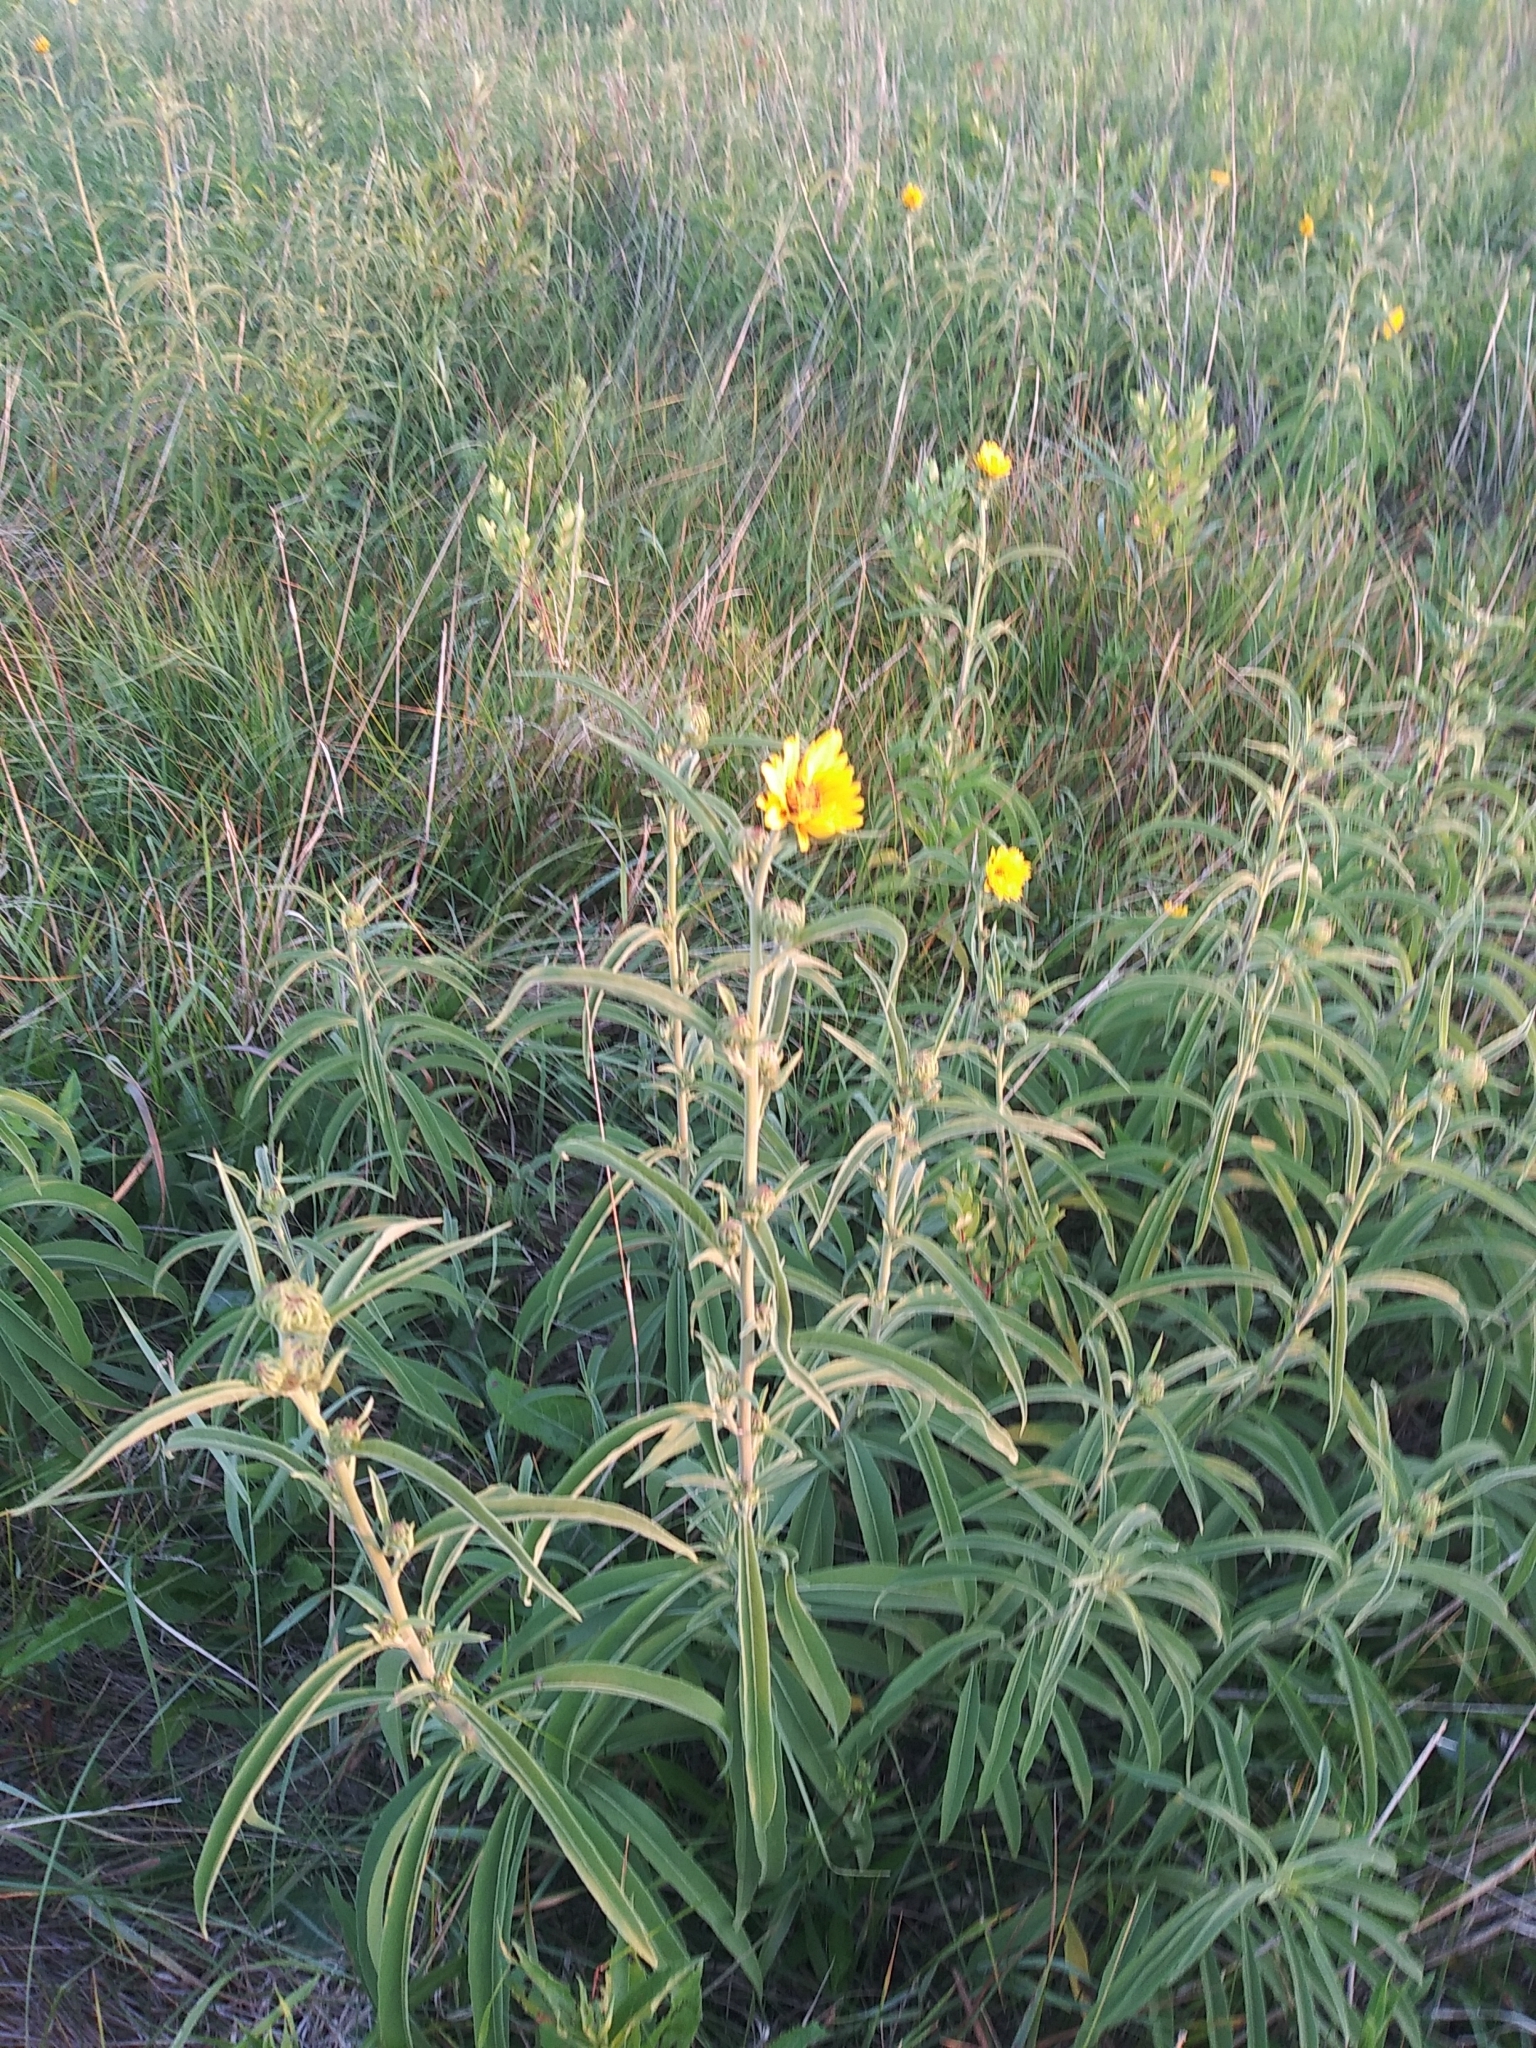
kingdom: Plantae
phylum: Tracheophyta
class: Magnoliopsida
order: Asterales
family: Asteraceae
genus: Helianthus
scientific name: Helianthus maximiliani
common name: Maximilian's sunflower
